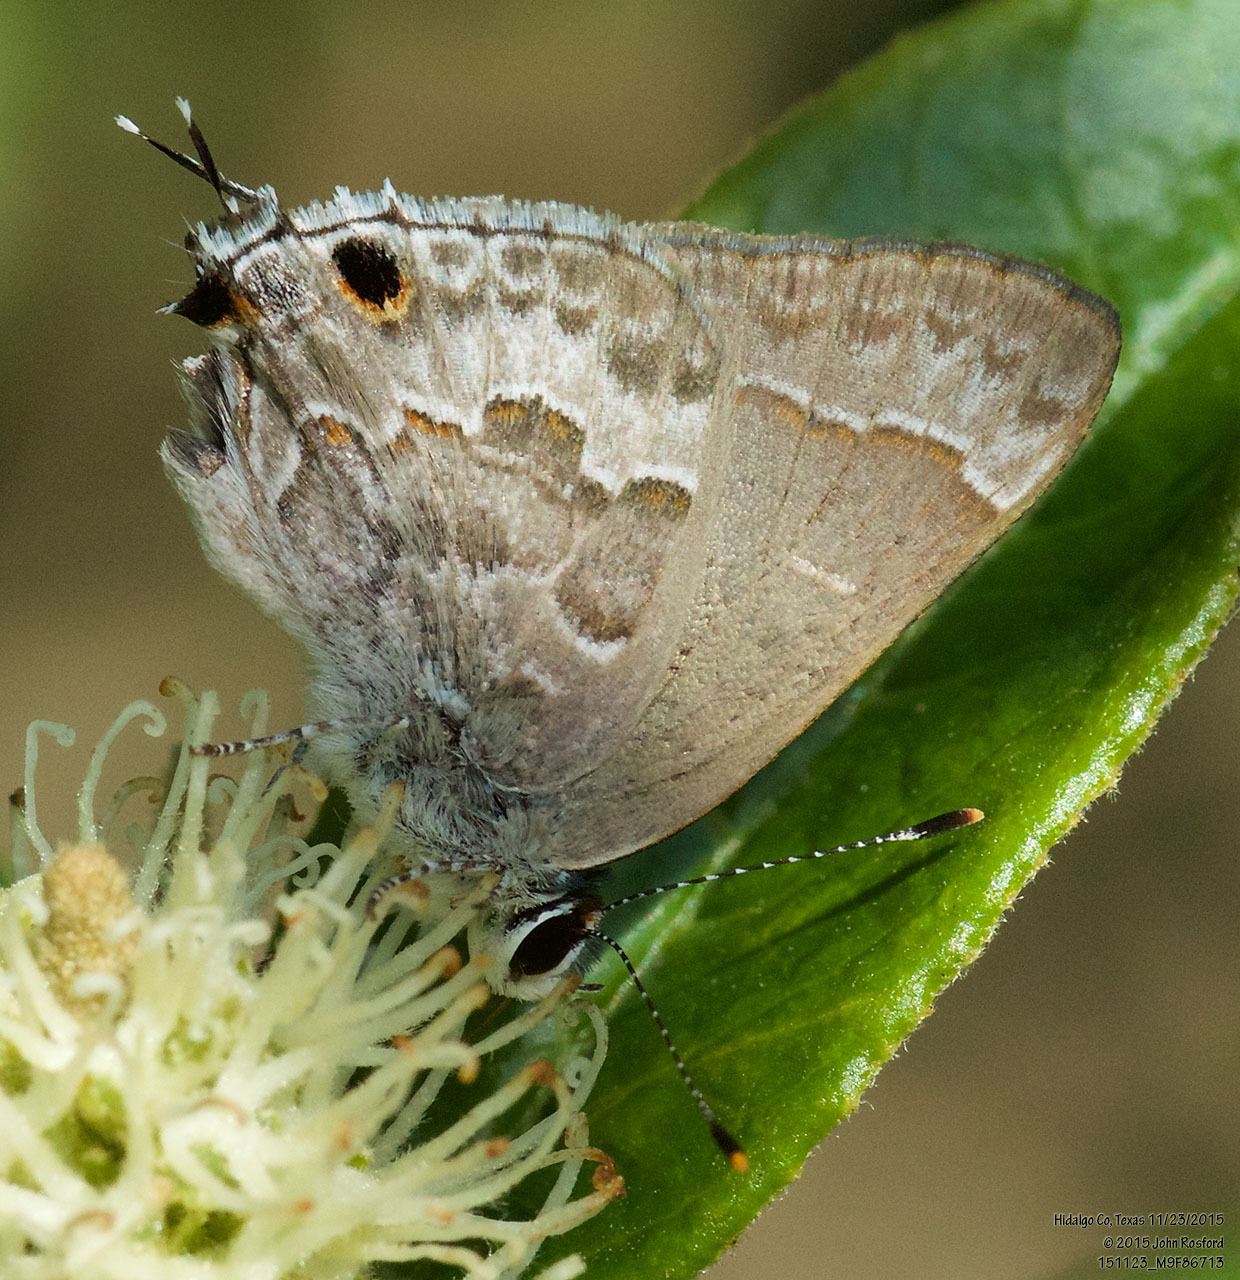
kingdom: Animalia
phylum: Arthropoda
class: Insecta
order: Lepidoptera
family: Lycaenidae
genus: Strymon
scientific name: Strymon alea
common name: Lacey's scrub-hairstreak
